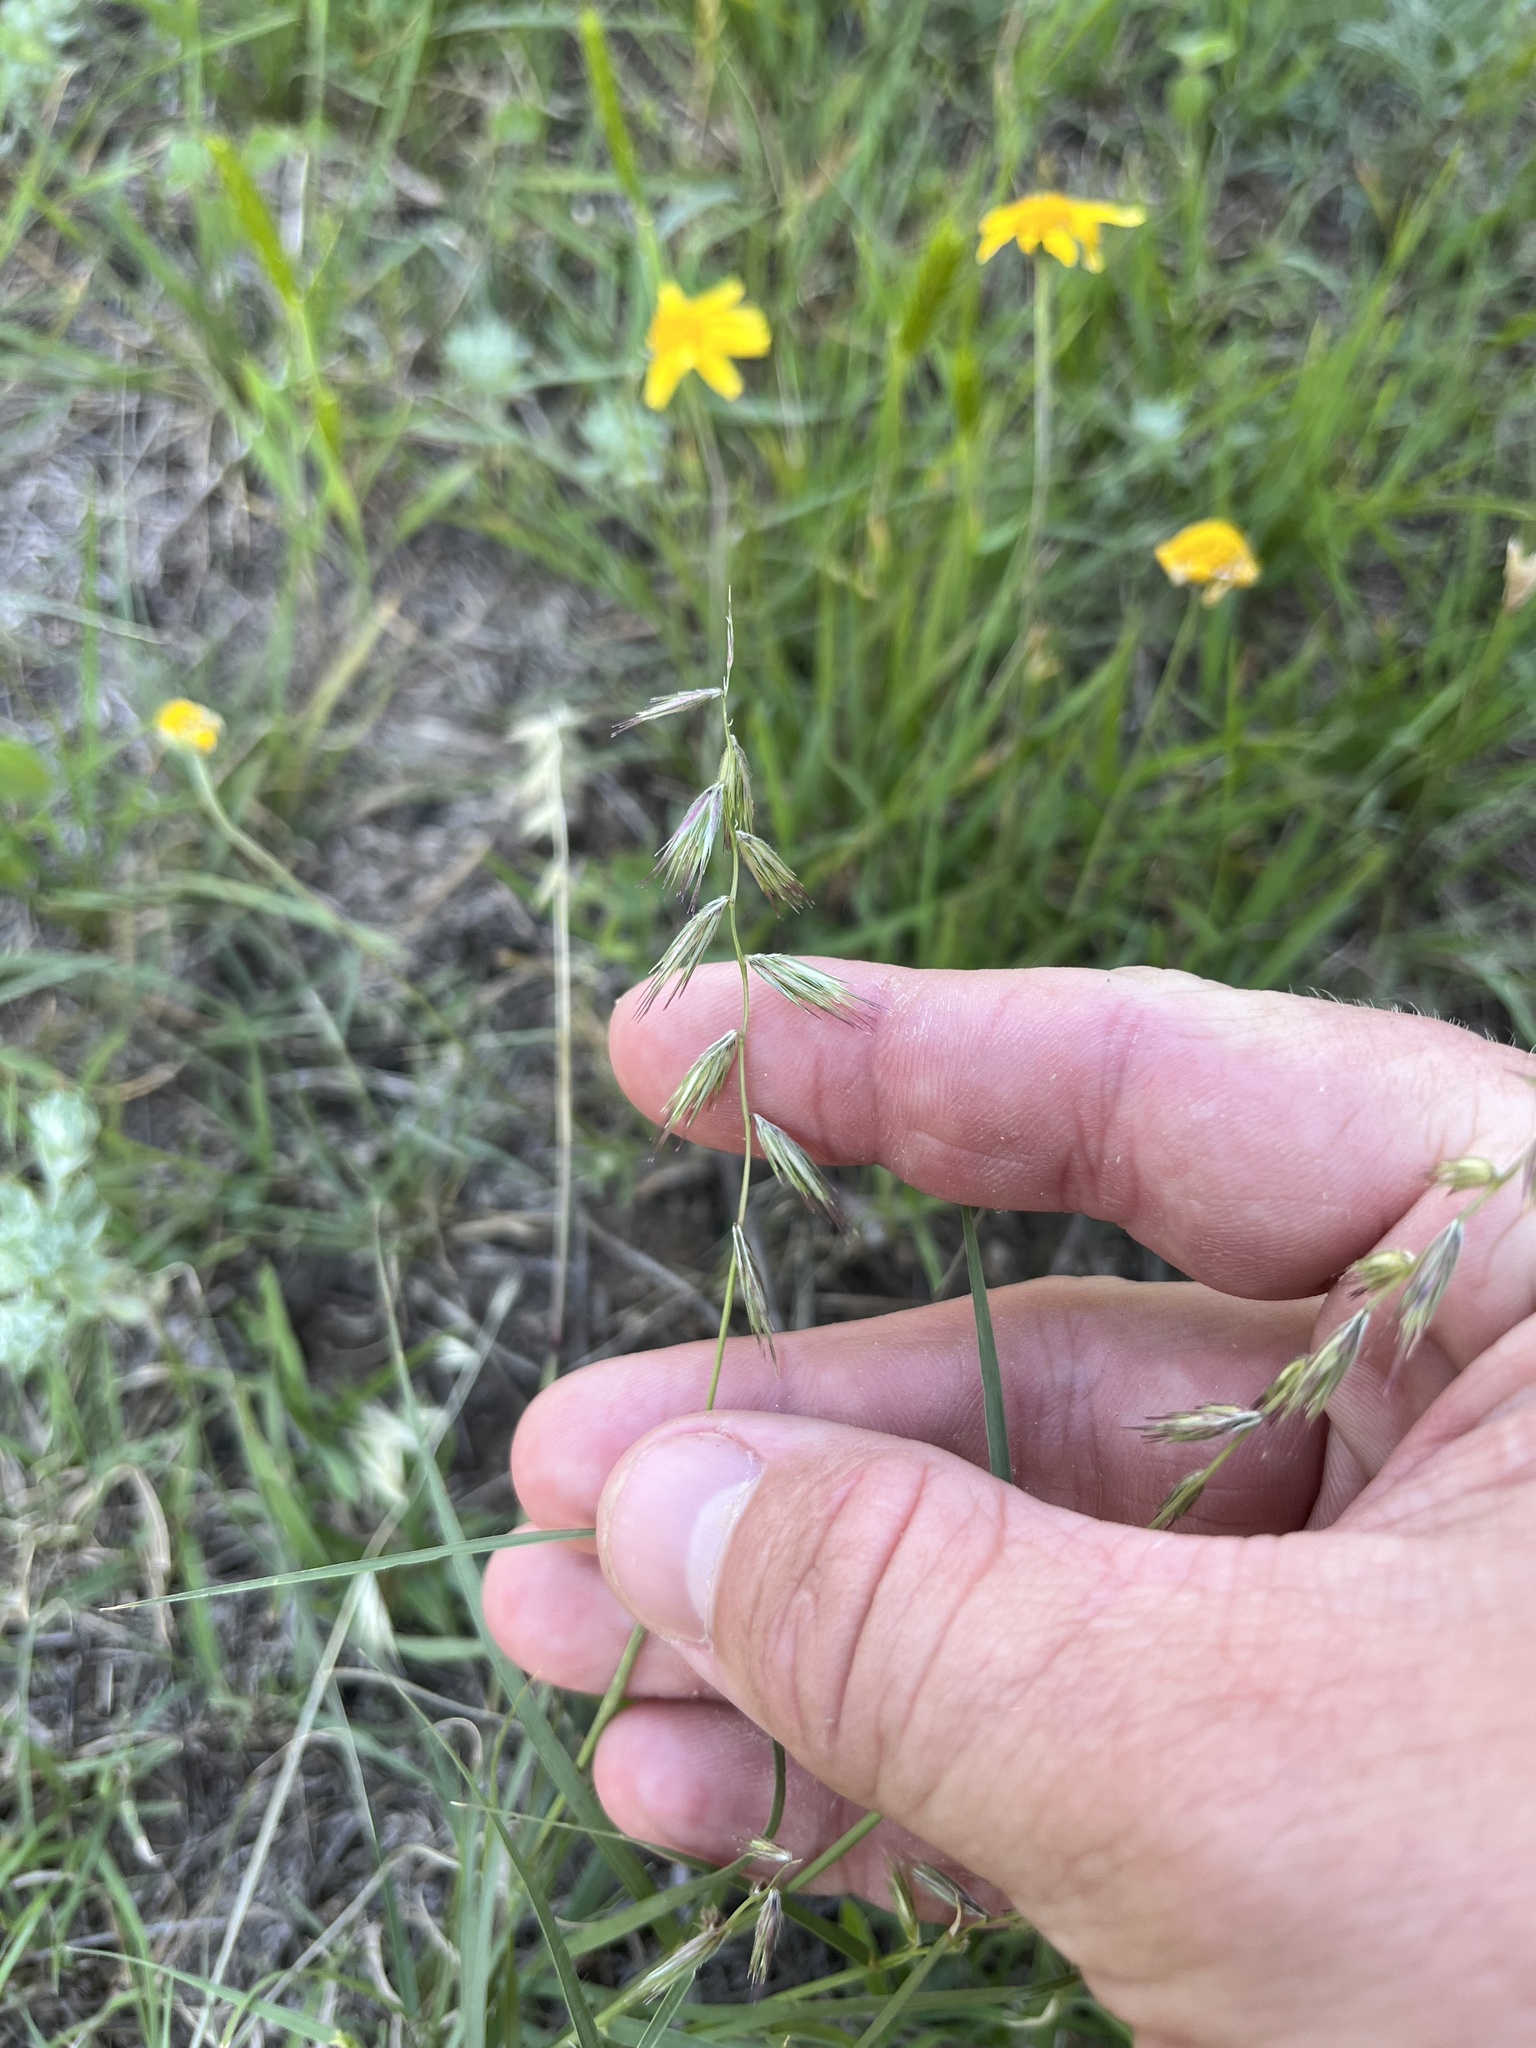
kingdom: Plantae
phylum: Tracheophyta
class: Liliopsida
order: Poales
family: Poaceae
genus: Bouteloua
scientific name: Bouteloua rigidiseta
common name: Texas grama
